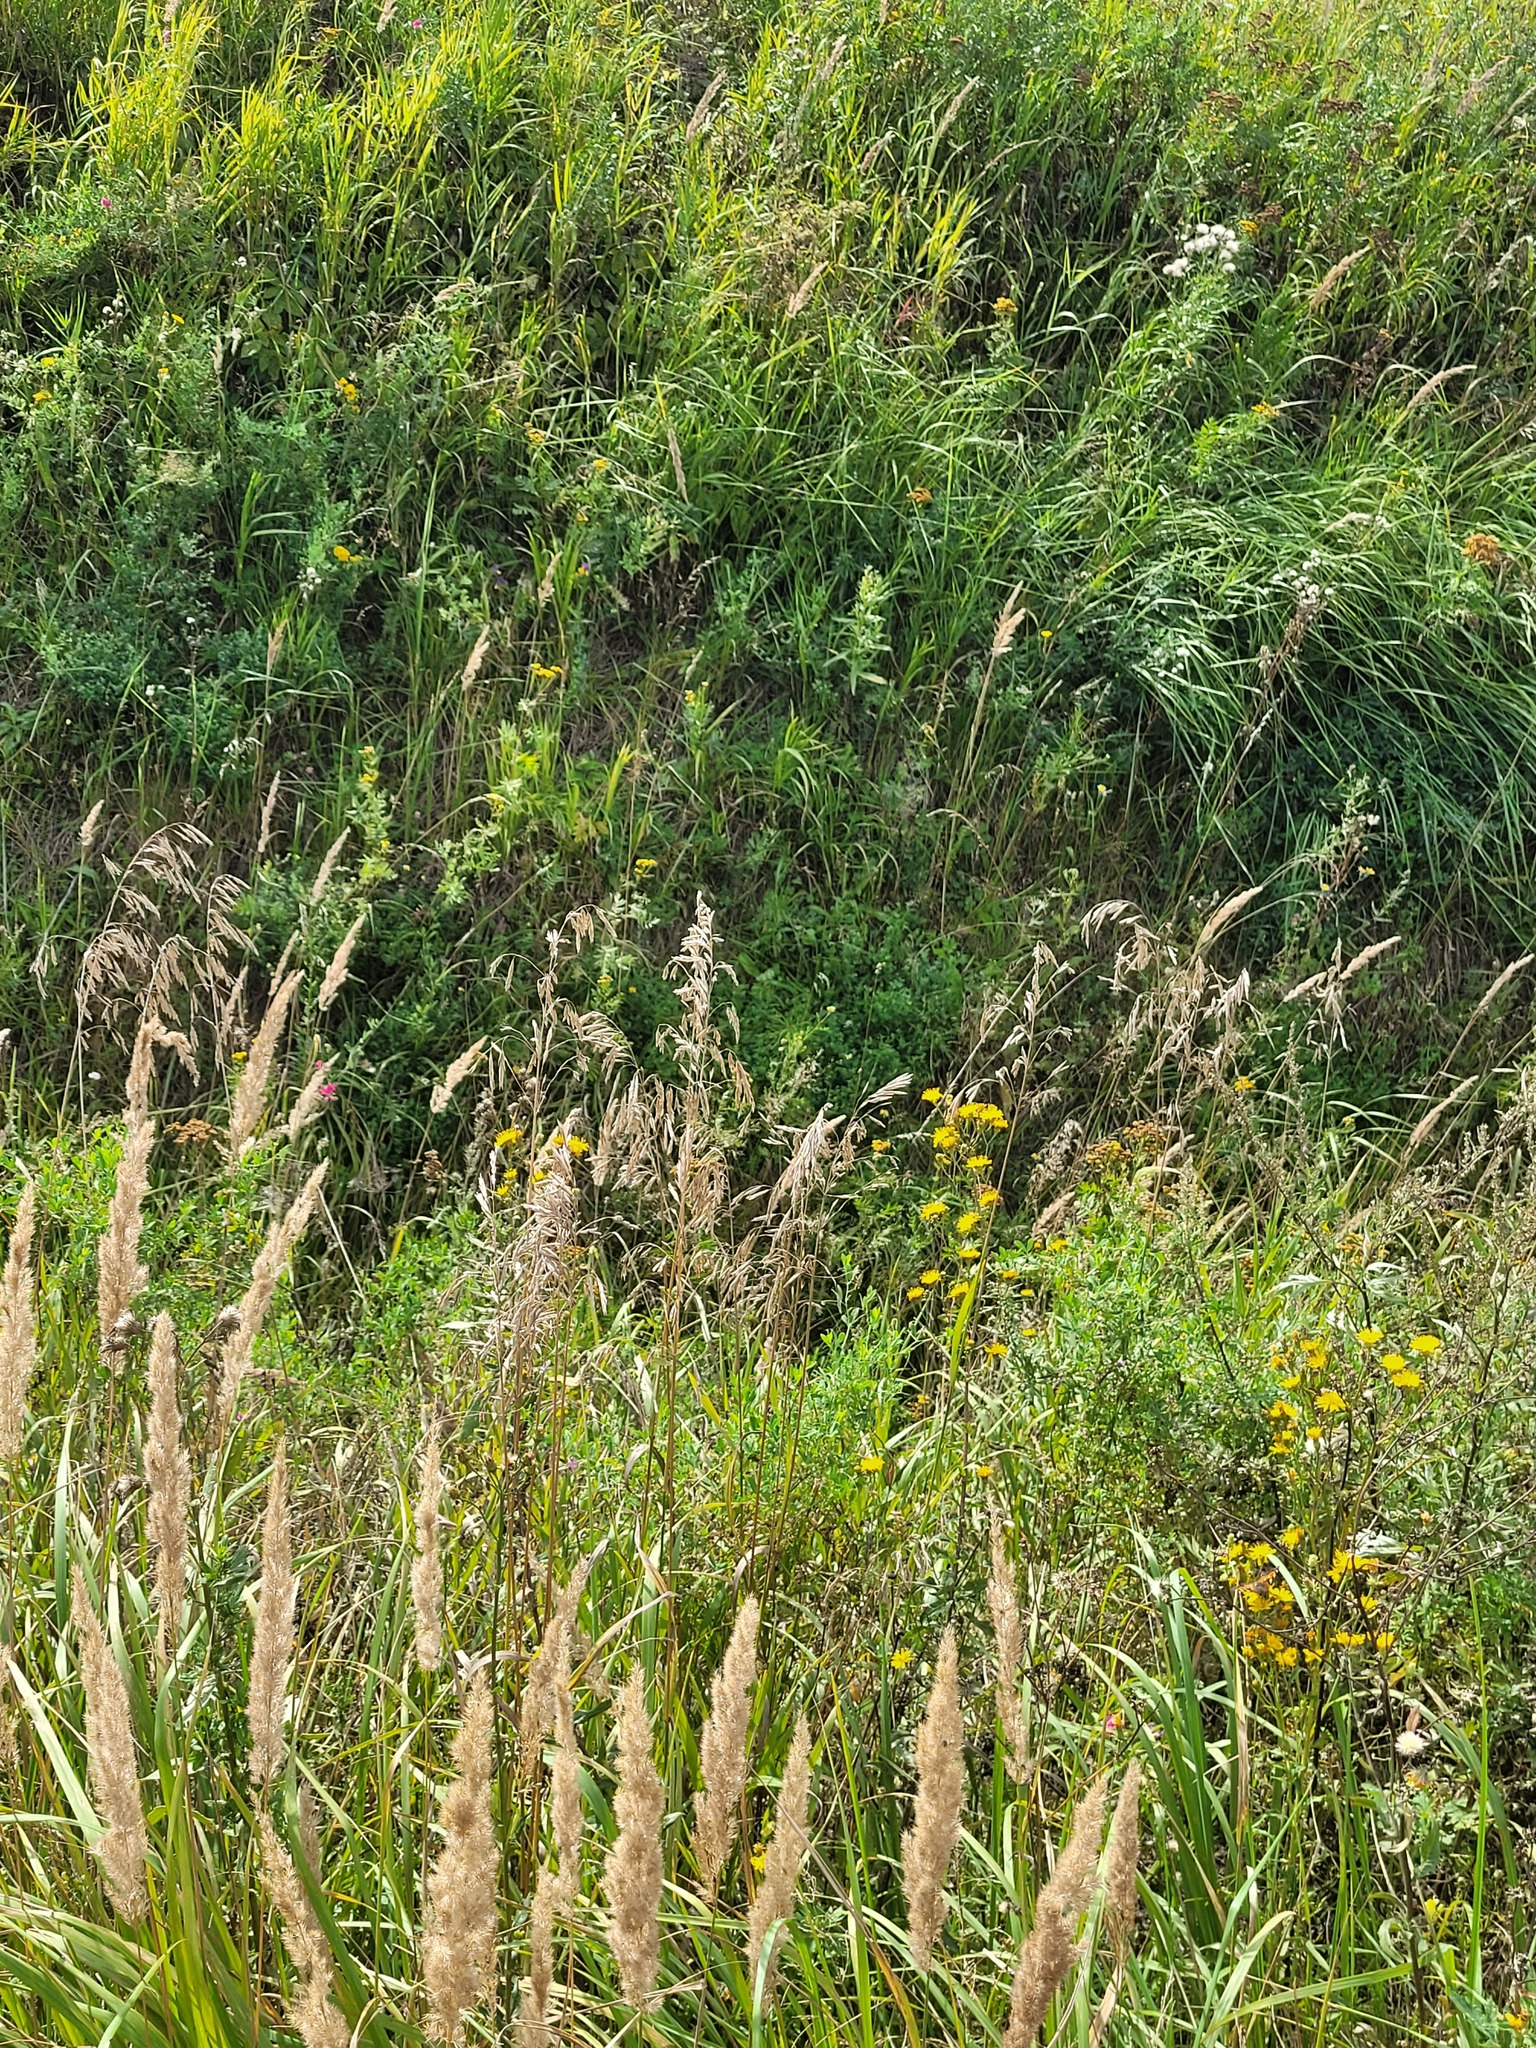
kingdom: Plantae
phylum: Tracheophyta
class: Liliopsida
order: Poales
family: Poaceae
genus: Bromus
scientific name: Bromus inermis
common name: Smooth brome
